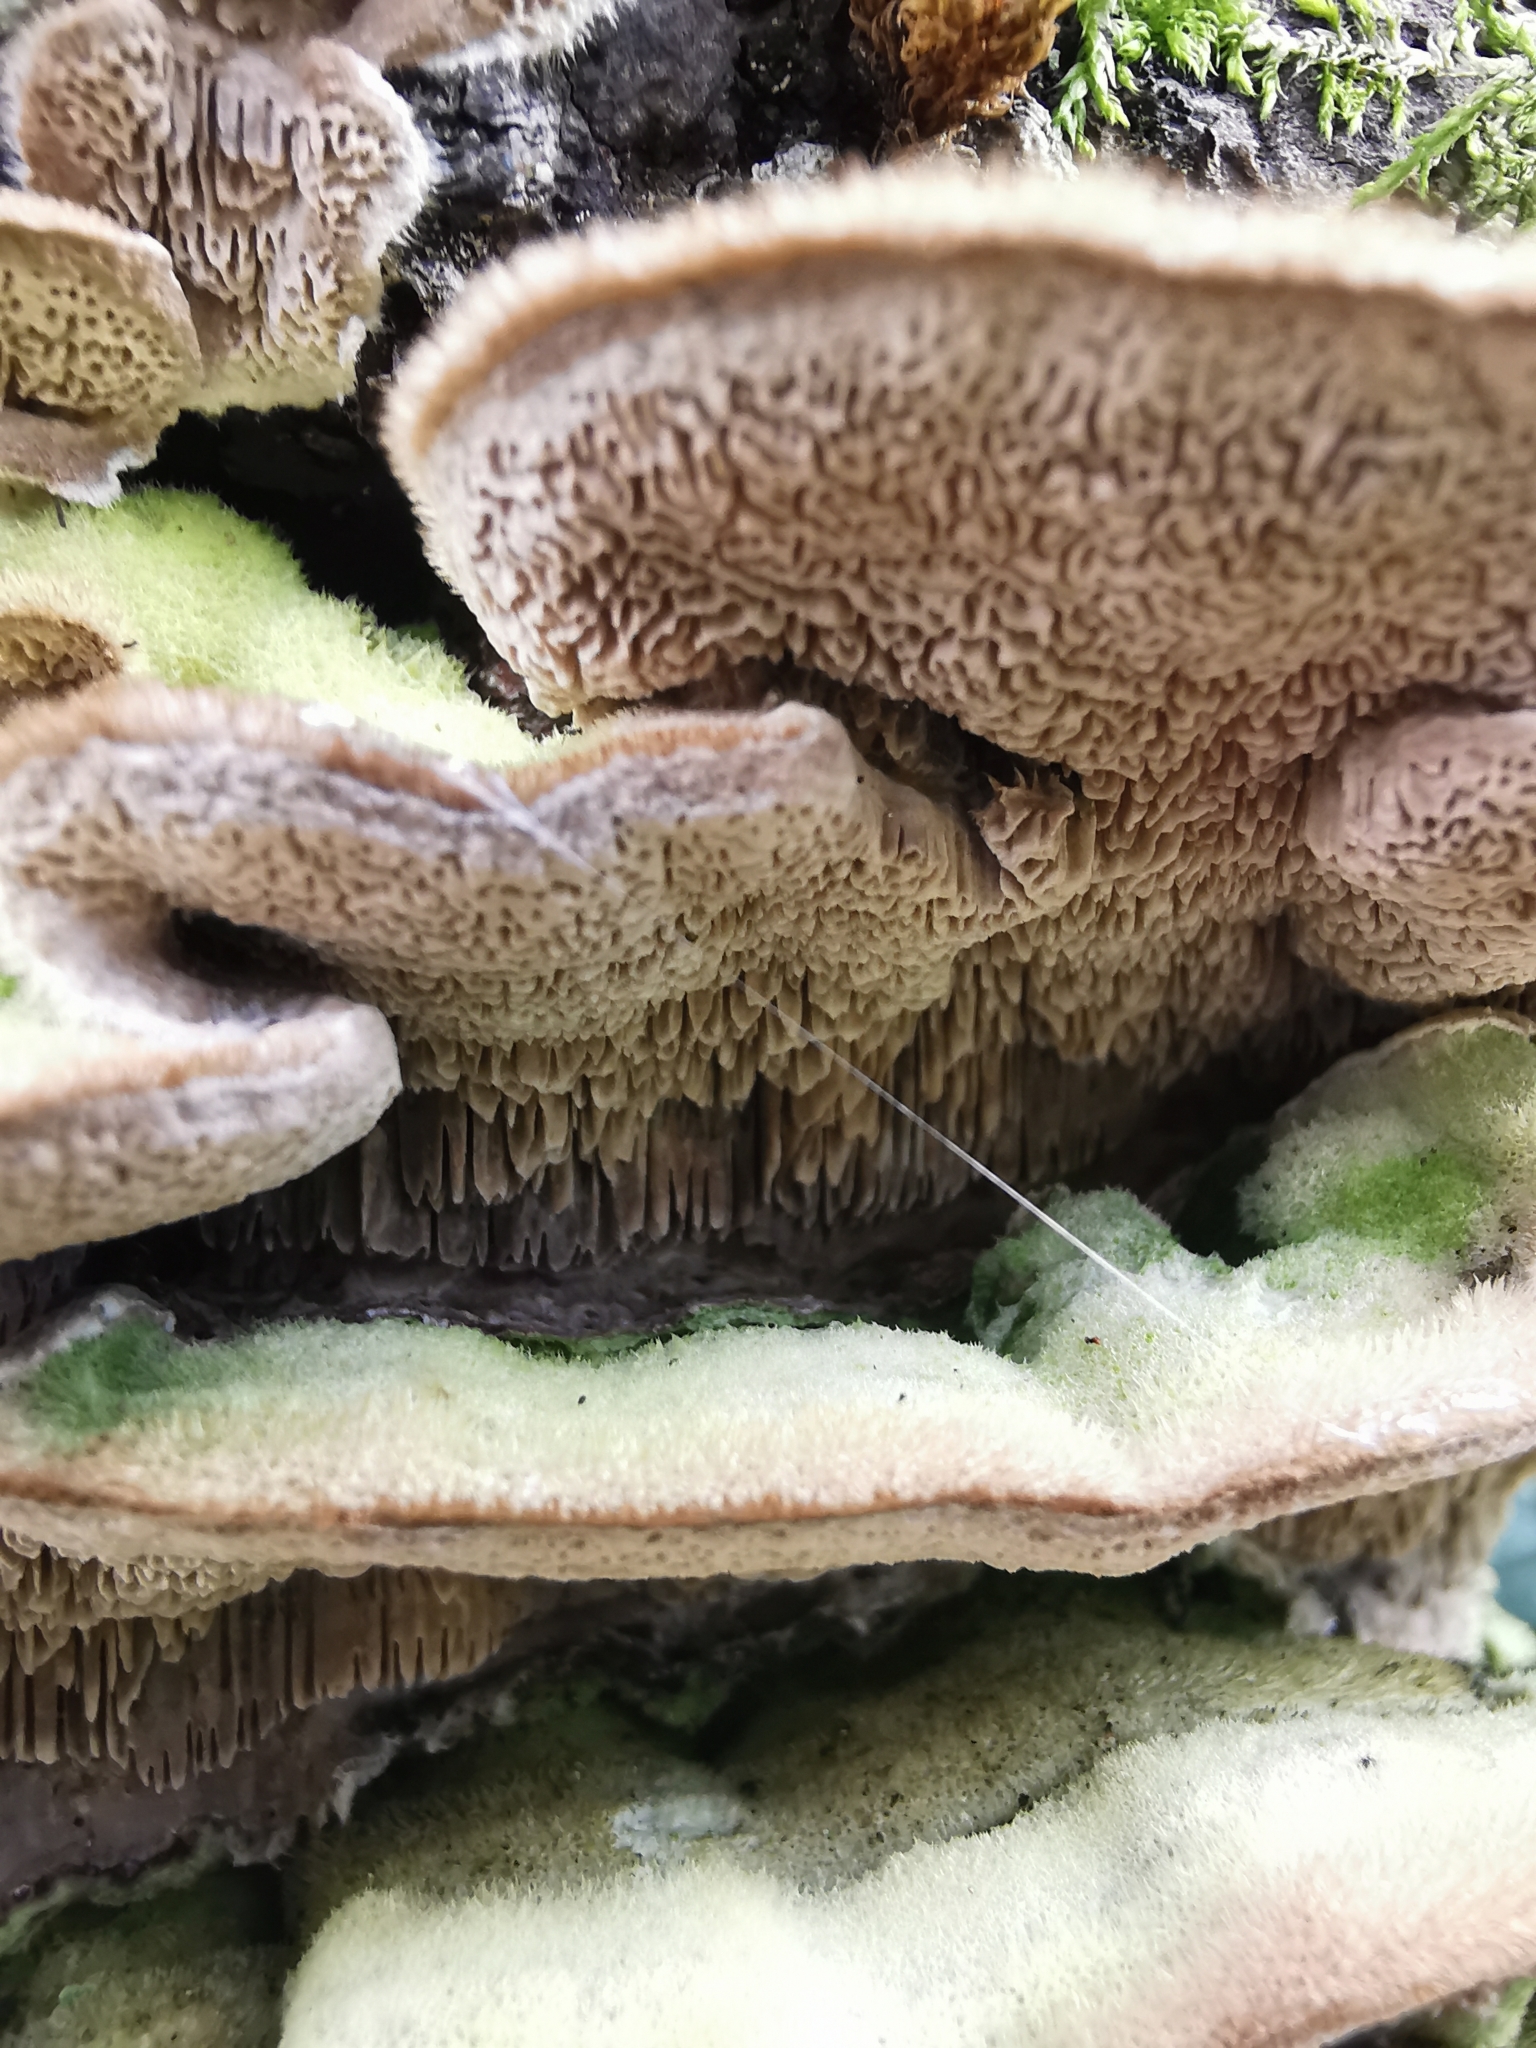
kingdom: Fungi
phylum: Basidiomycota
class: Agaricomycetes
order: Polyporales
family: Cerrenaceae
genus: Cerrena
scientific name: Cerrena unicolor
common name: Mossy maze polypore
